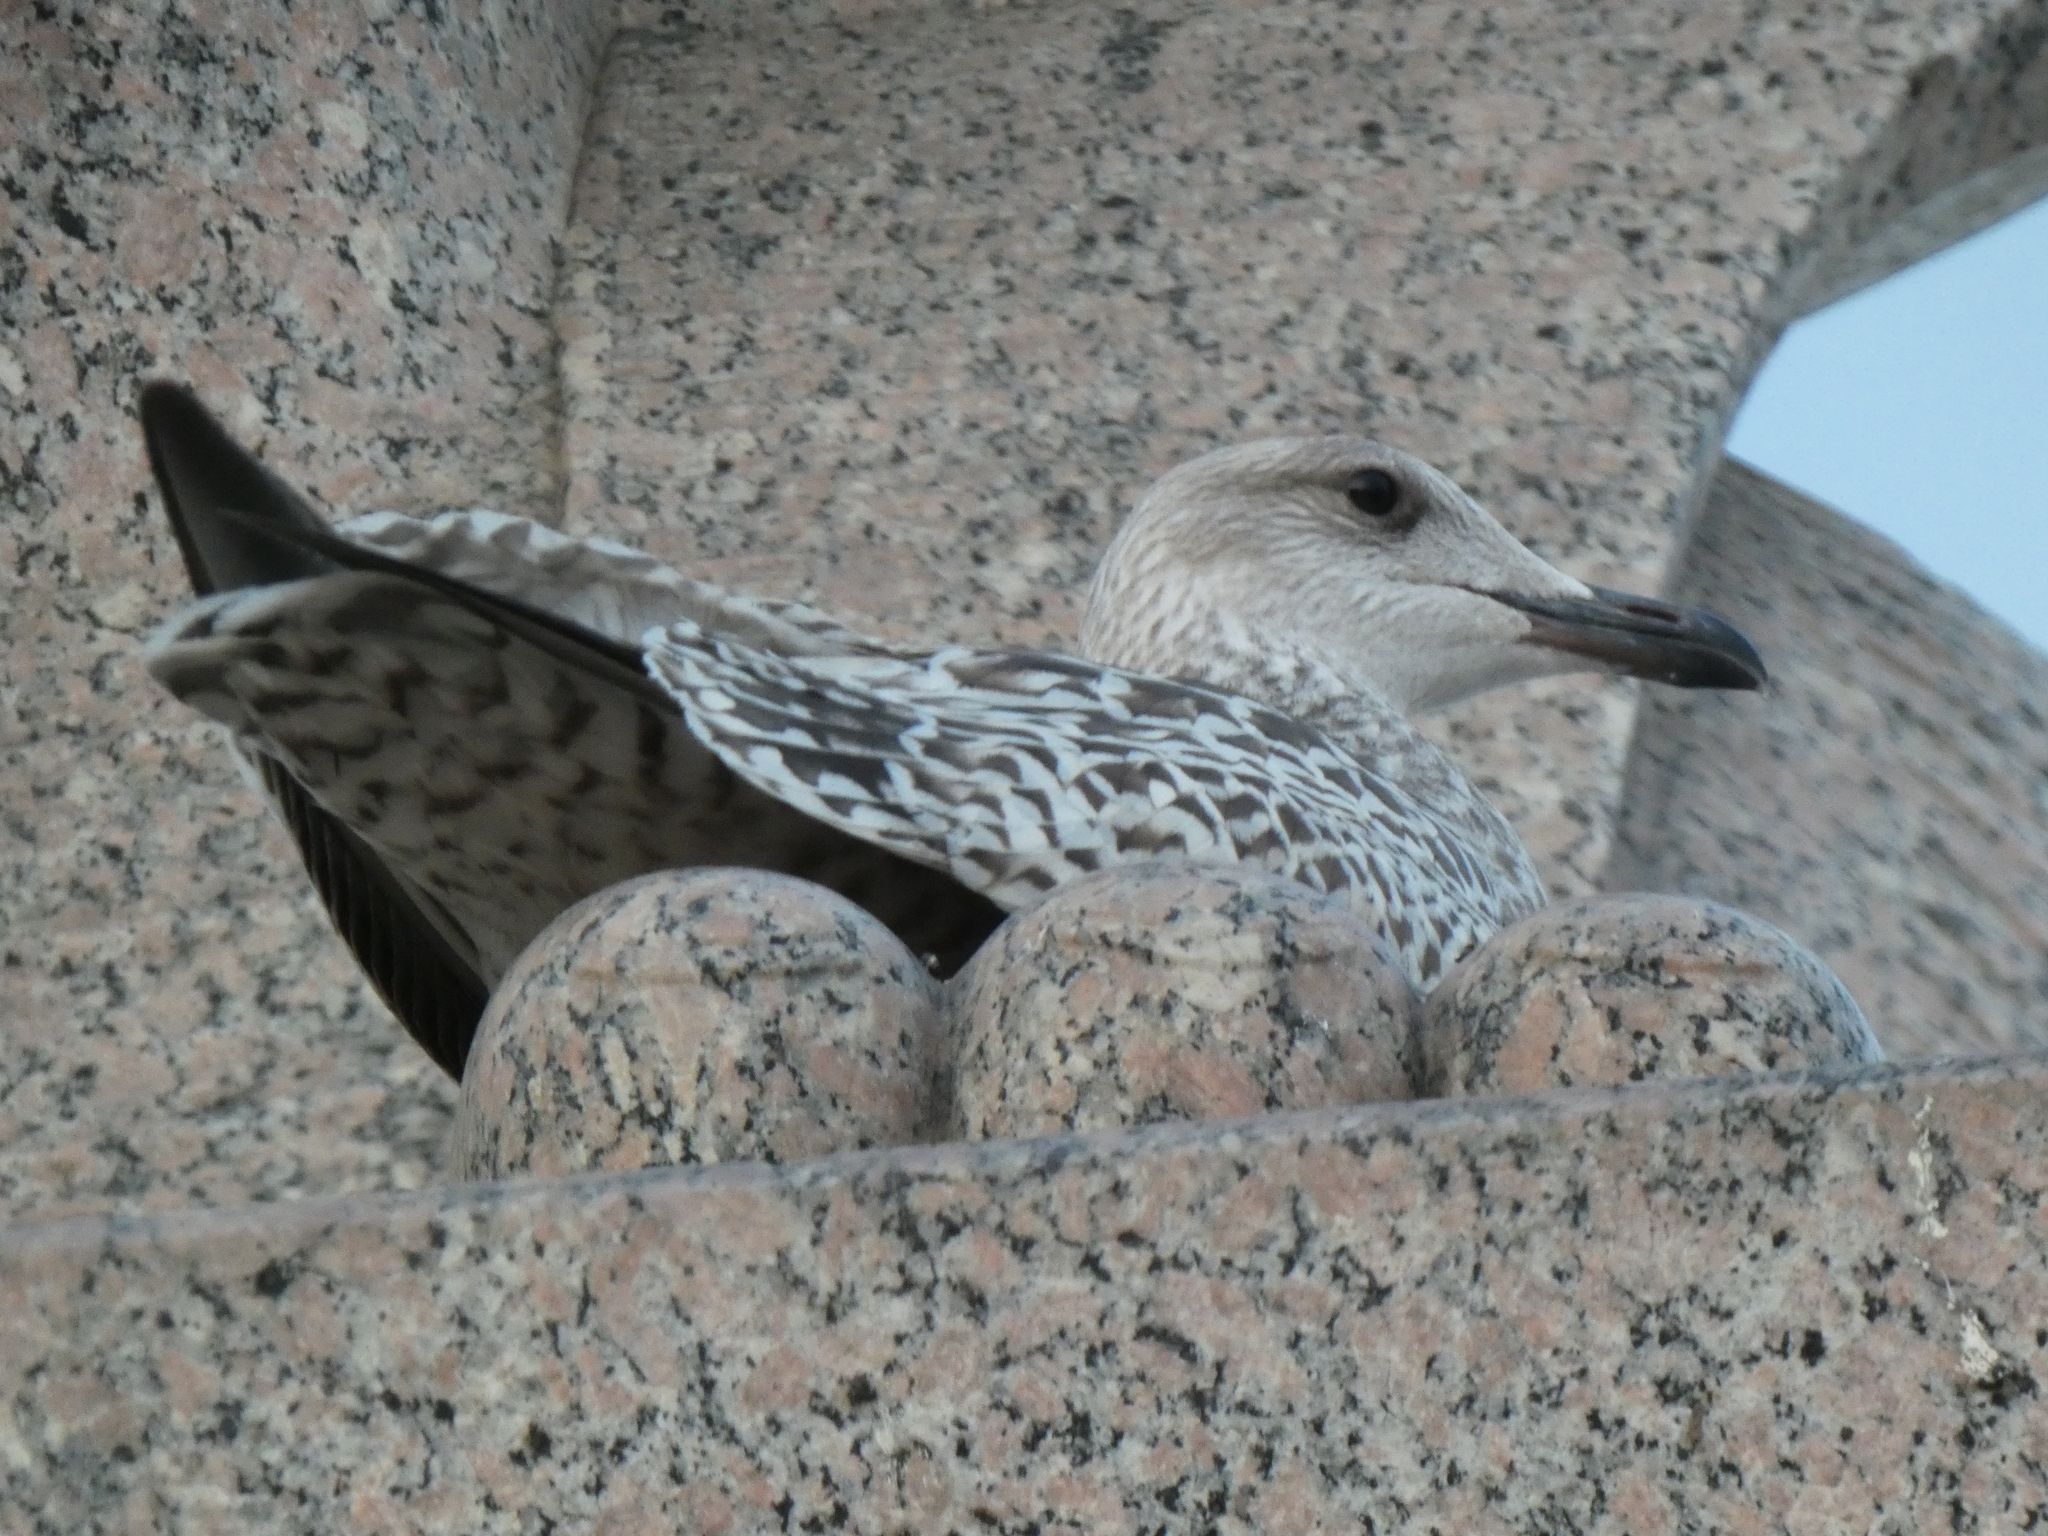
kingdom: Animalia
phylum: Chordata
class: Aves
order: Charadriiformes
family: Laridae
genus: Larus
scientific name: Larus argentatus
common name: Herring gull
